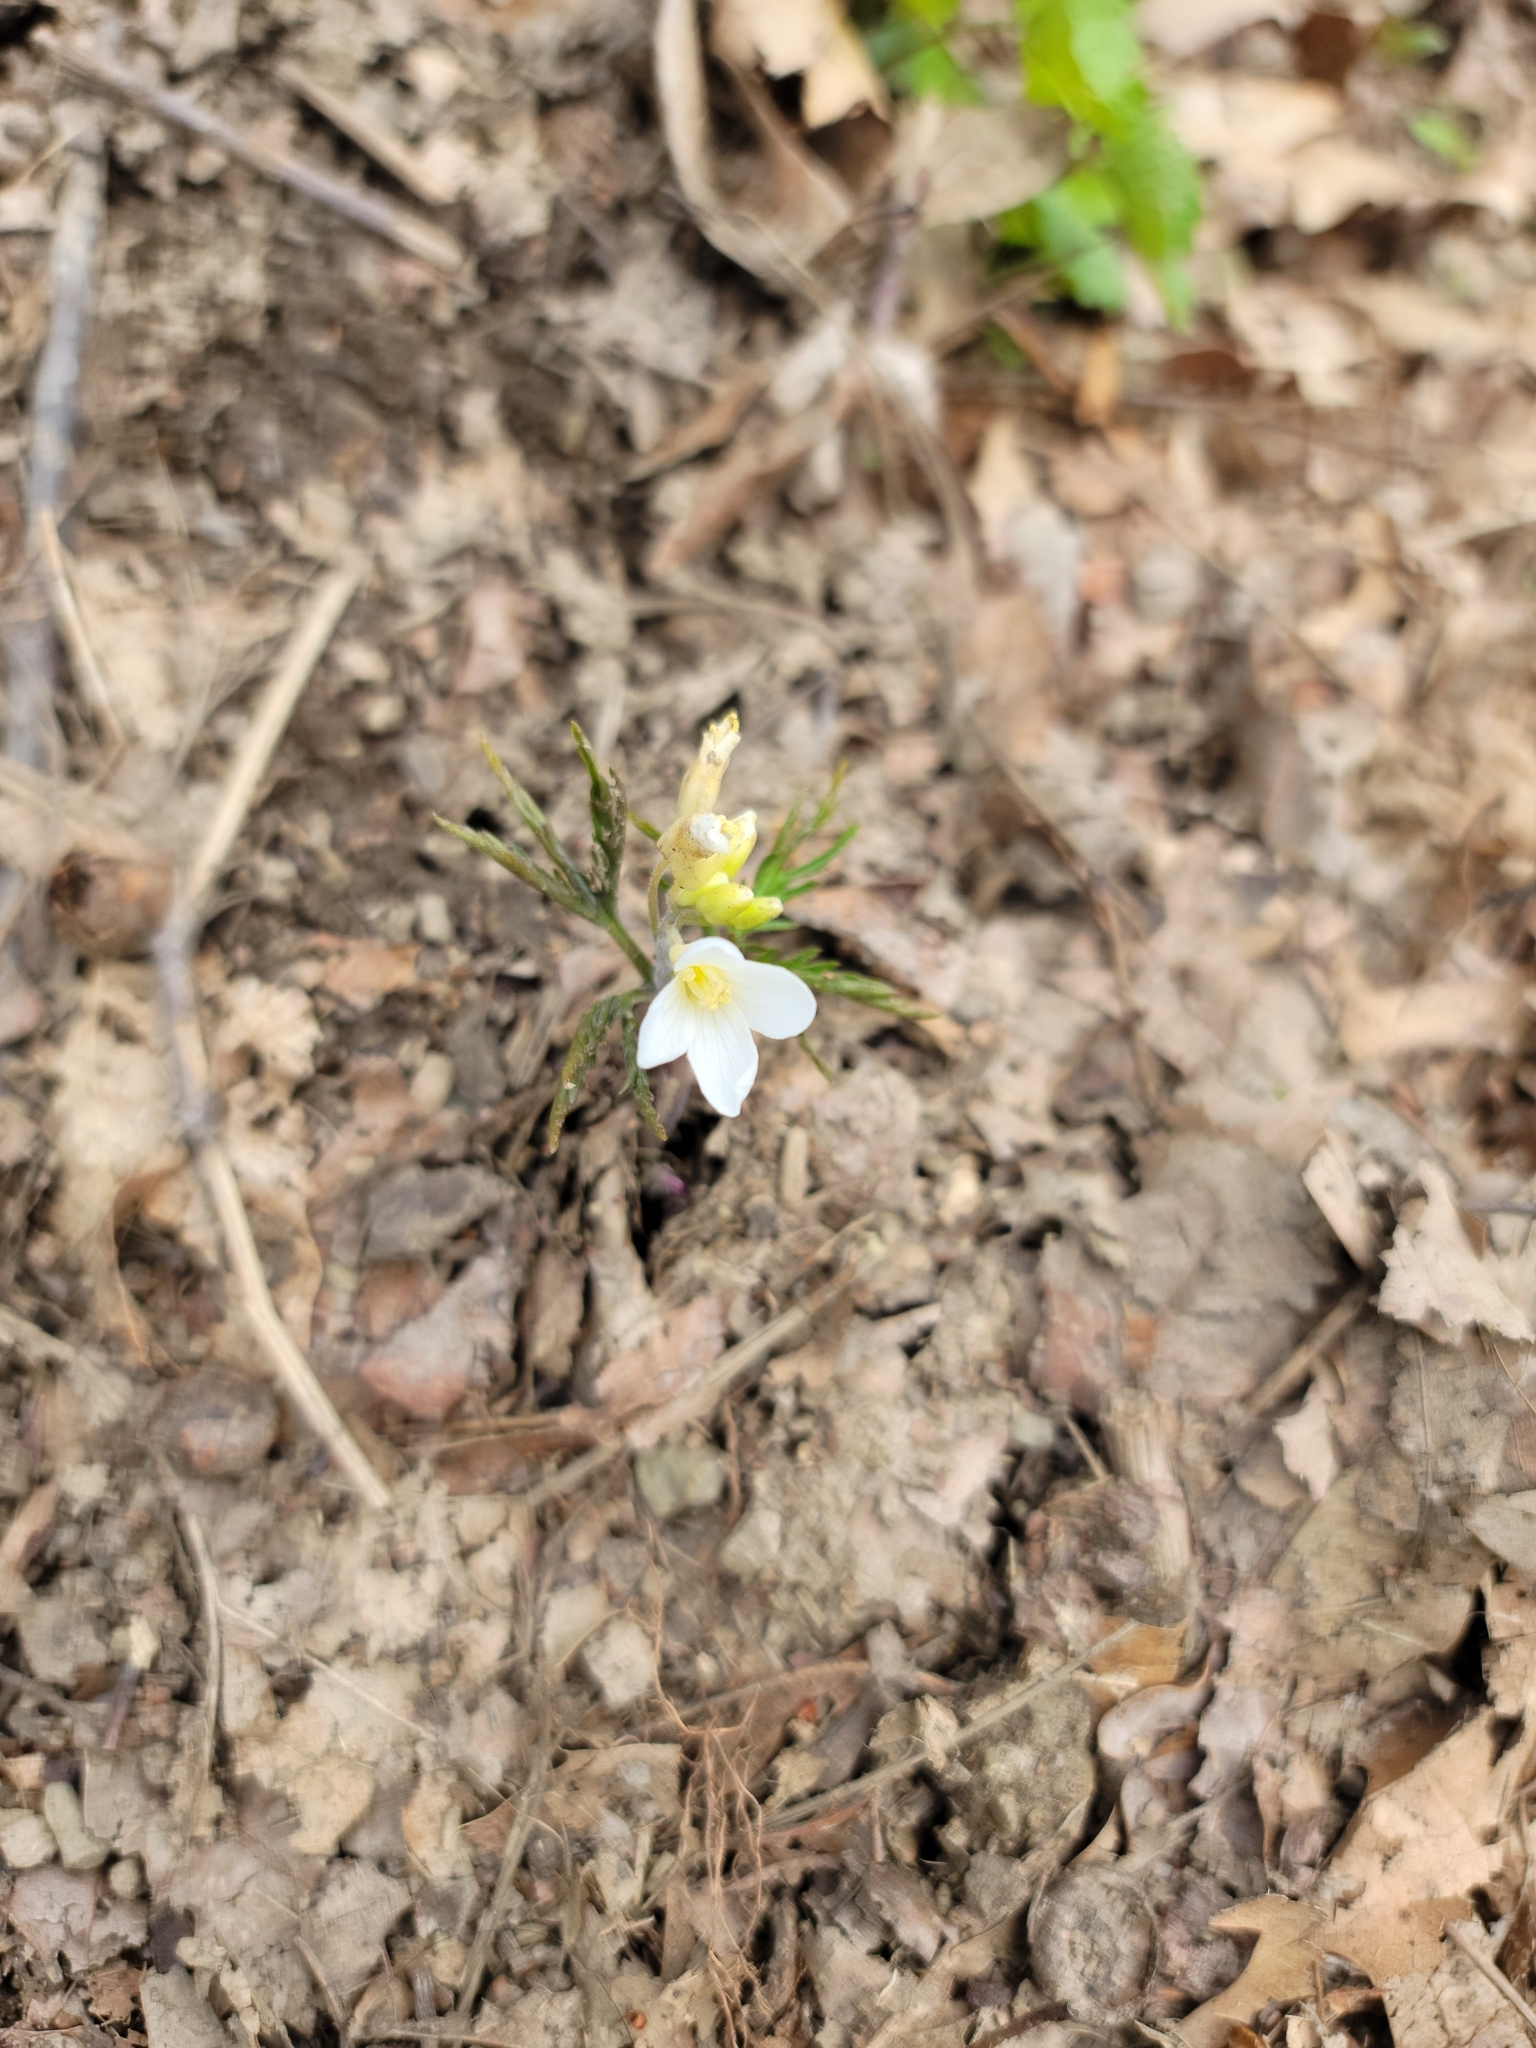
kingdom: Plantae
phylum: Tracheophyta
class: Magnoliopsida
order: Brassicales
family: Brassicaceae
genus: Cardamine
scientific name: Cardamine concatenata
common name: Cut-leaf toothcup
